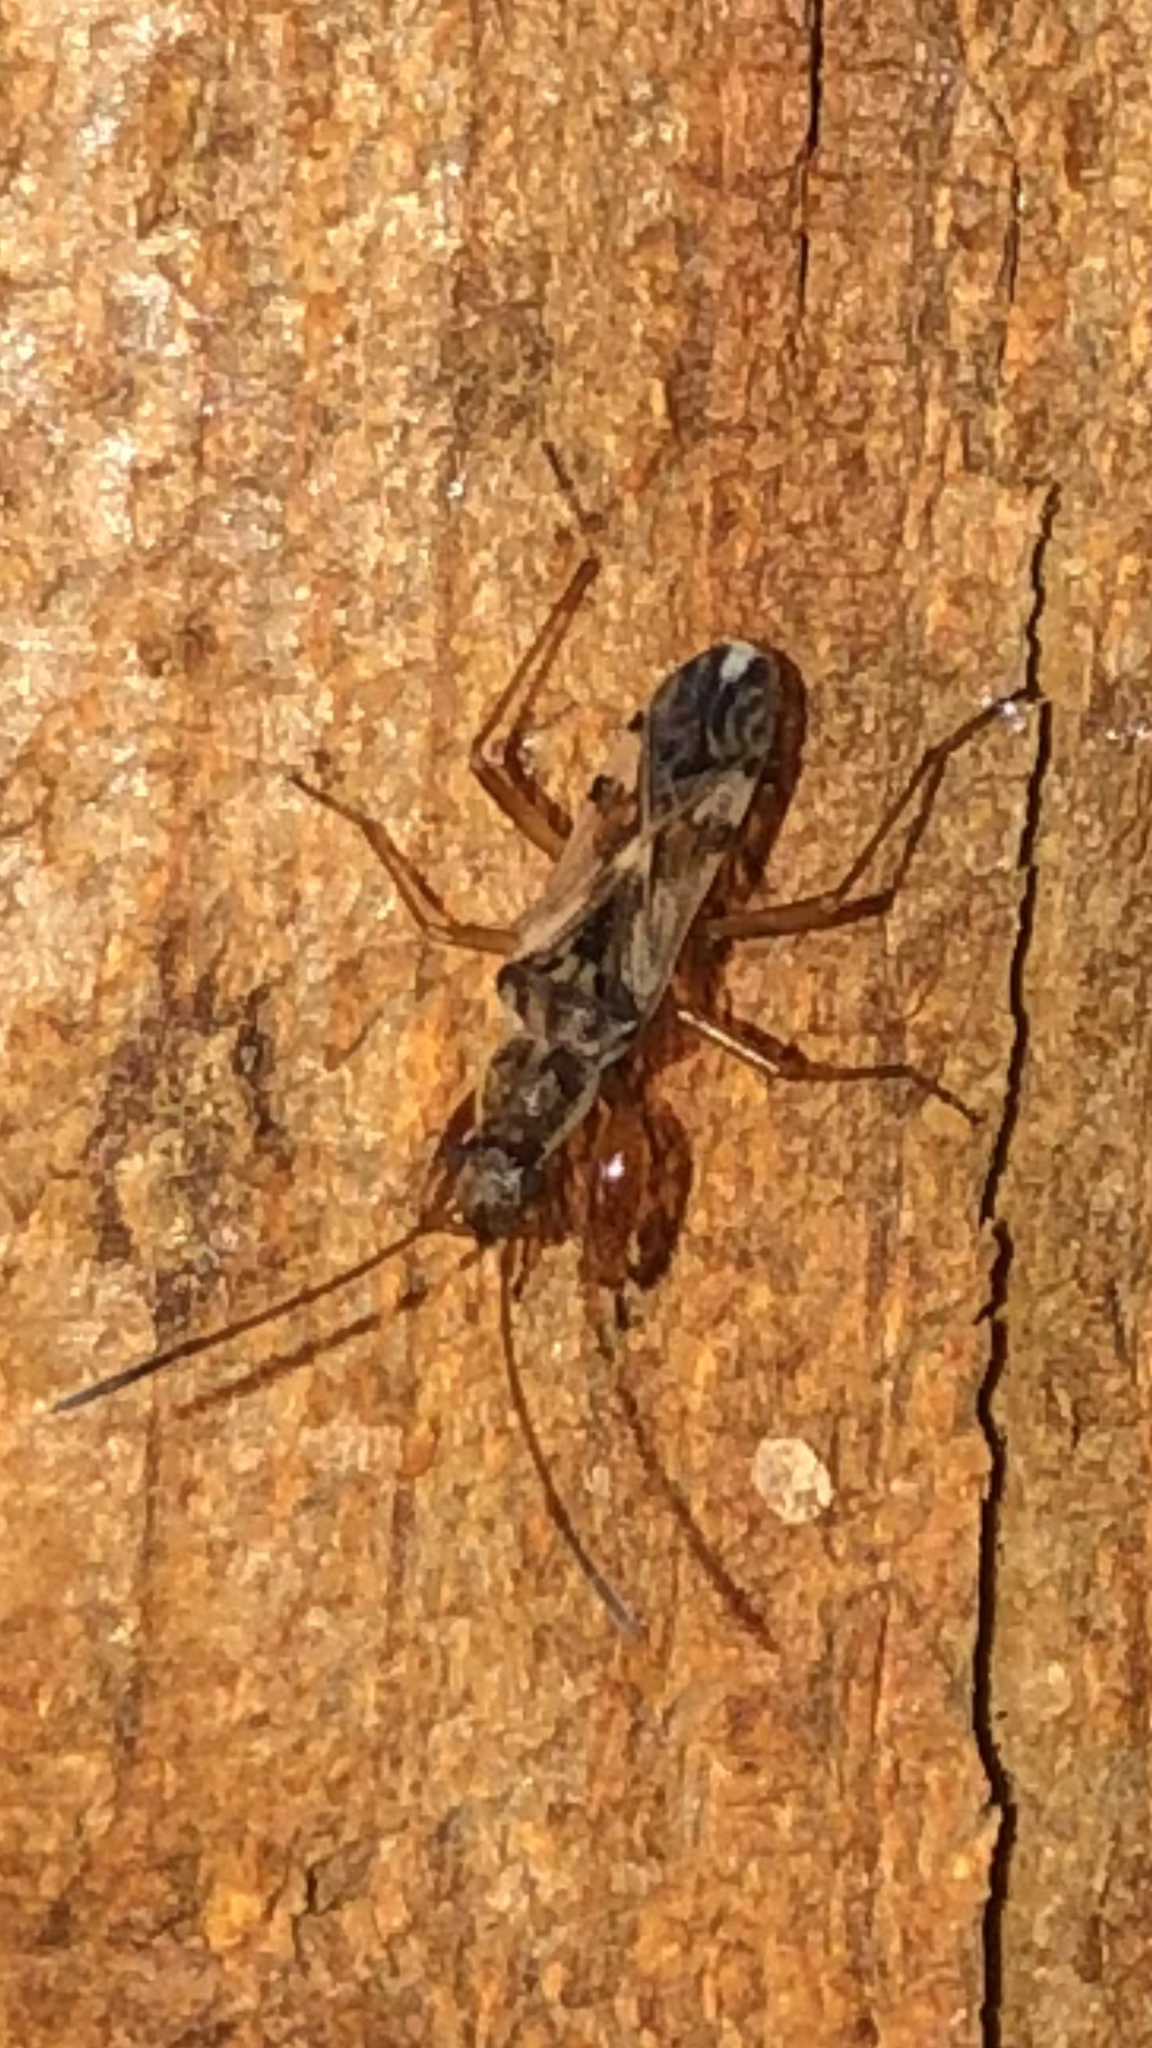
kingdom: Animalia
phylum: Arthropoda
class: Insecta
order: Hemiptera
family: Rhyparochromidae
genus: Neopamera
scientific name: Neopamera bilobata
